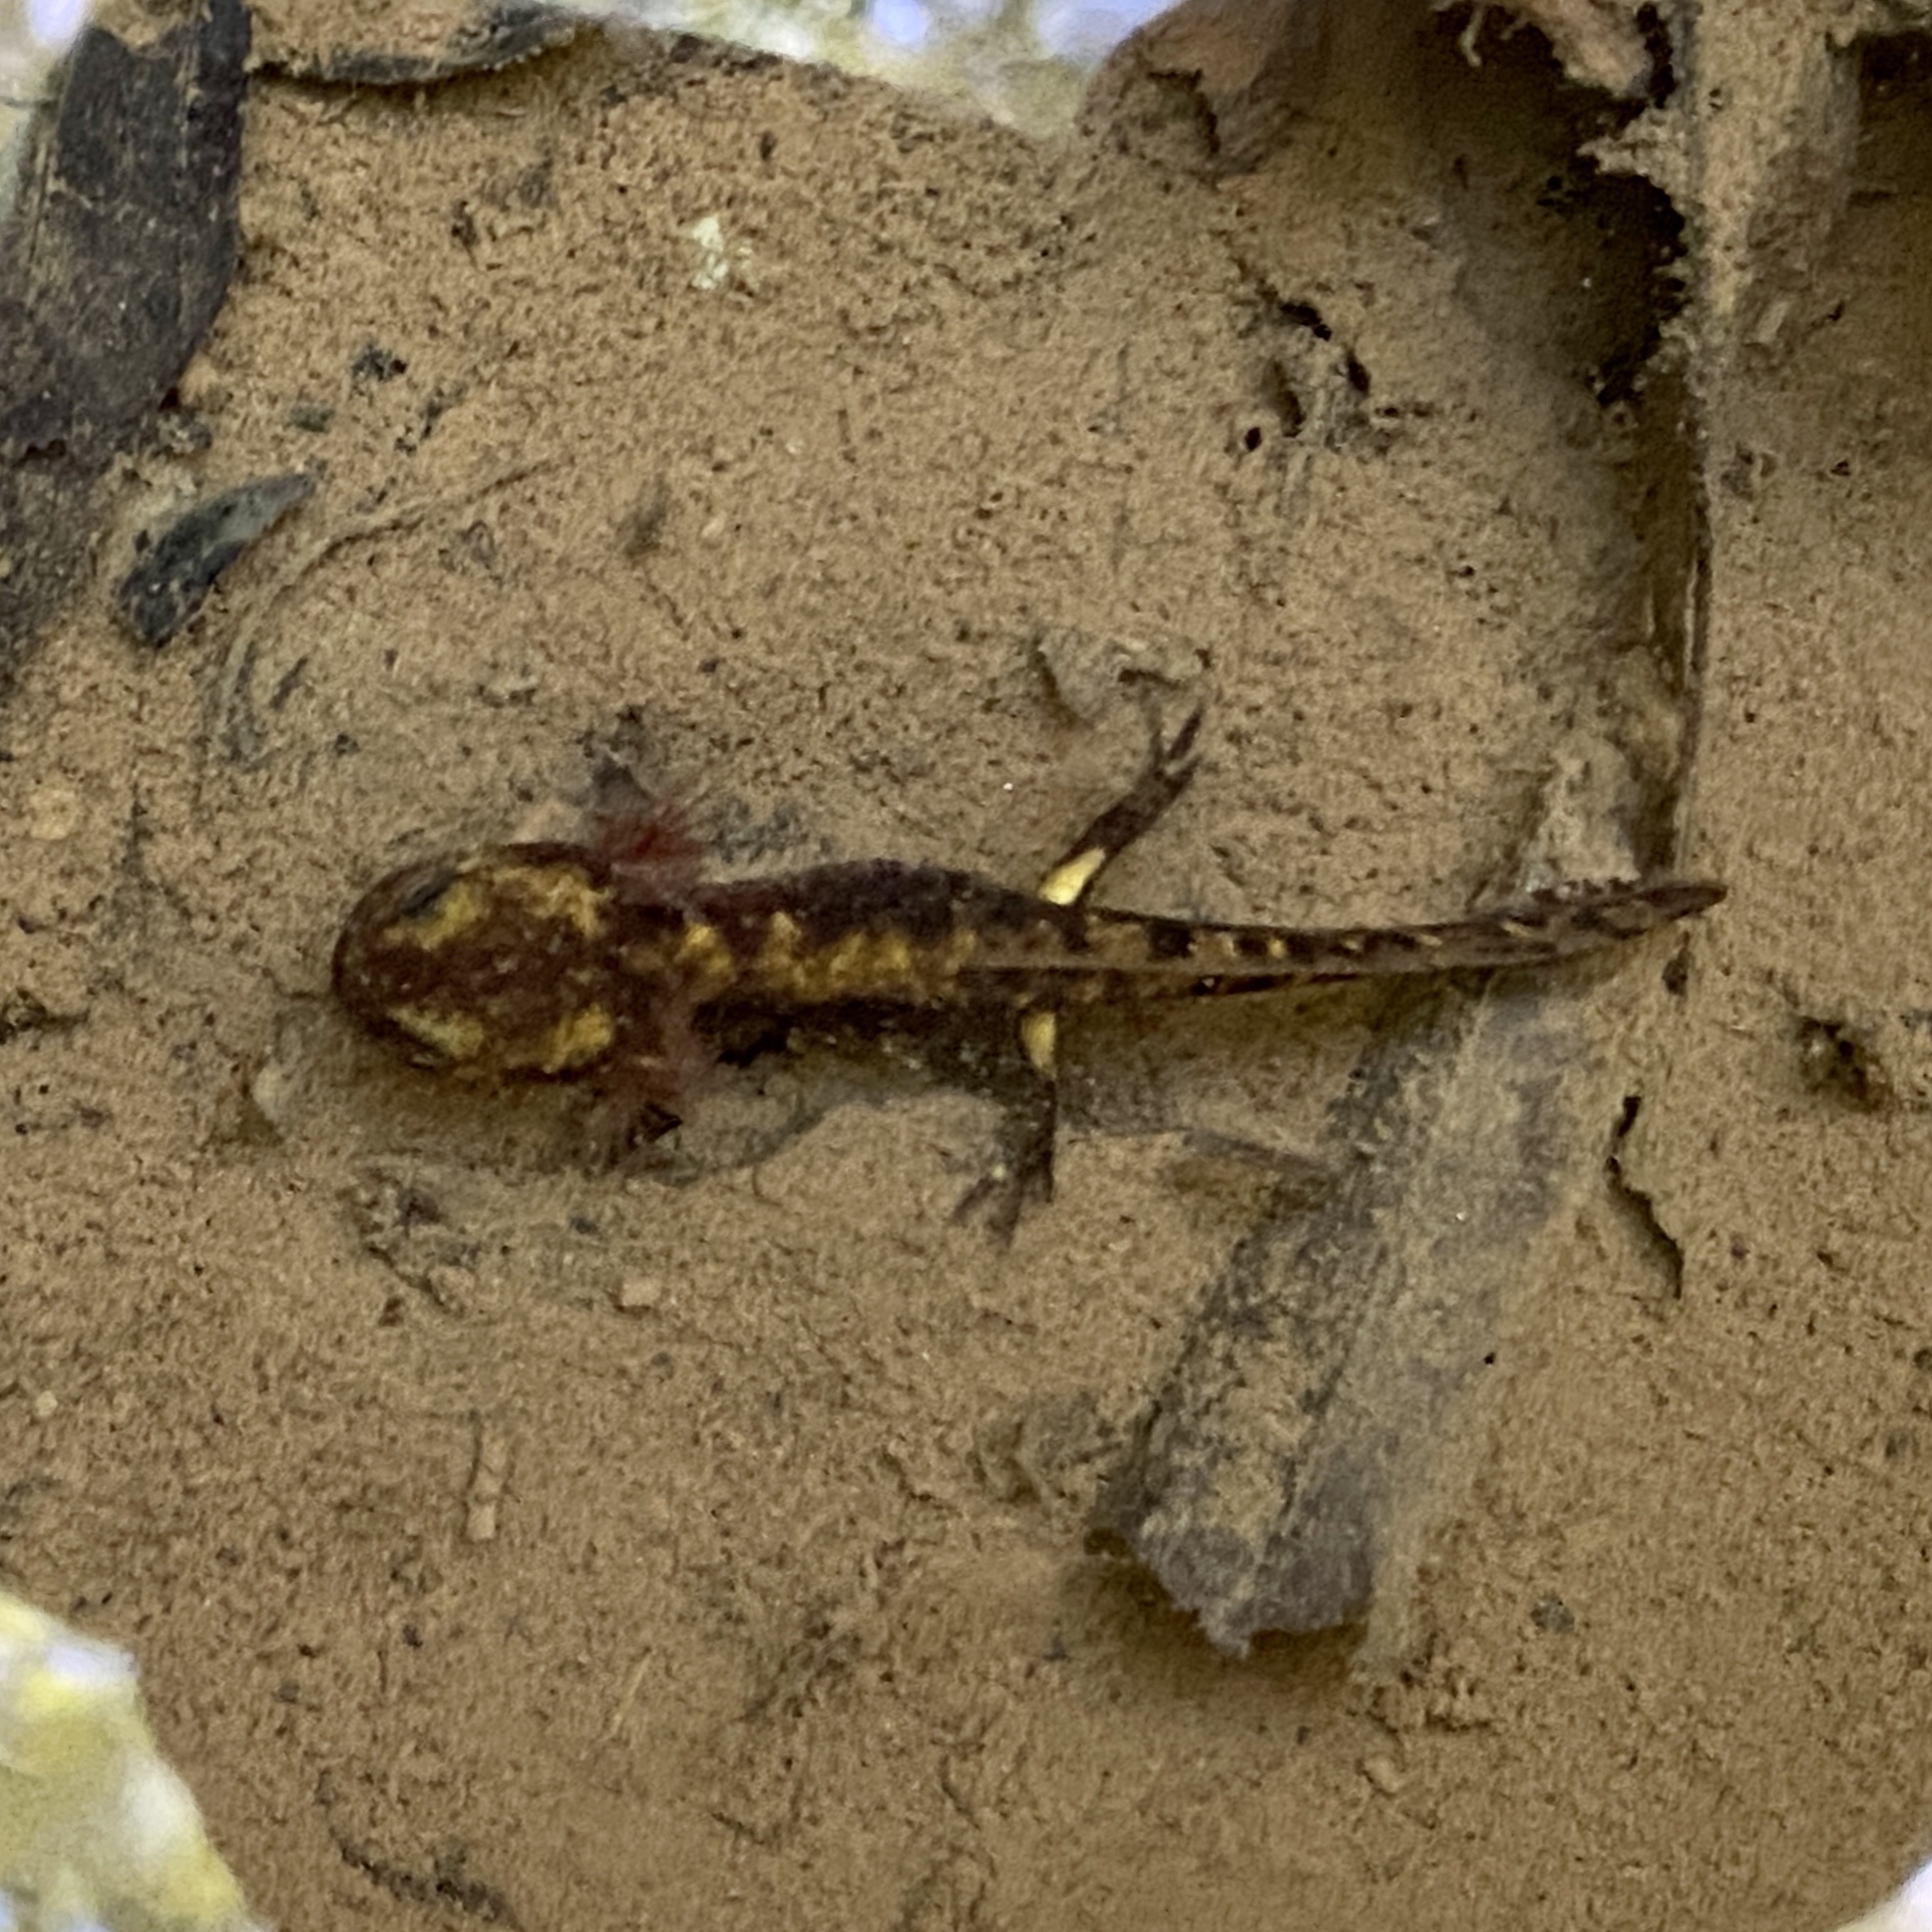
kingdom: Animalia
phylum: Chordata
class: Amphibia
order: Caudata
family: Salamandridae
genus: Salamandra
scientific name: Salamandra salamandra
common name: Fire salamander
